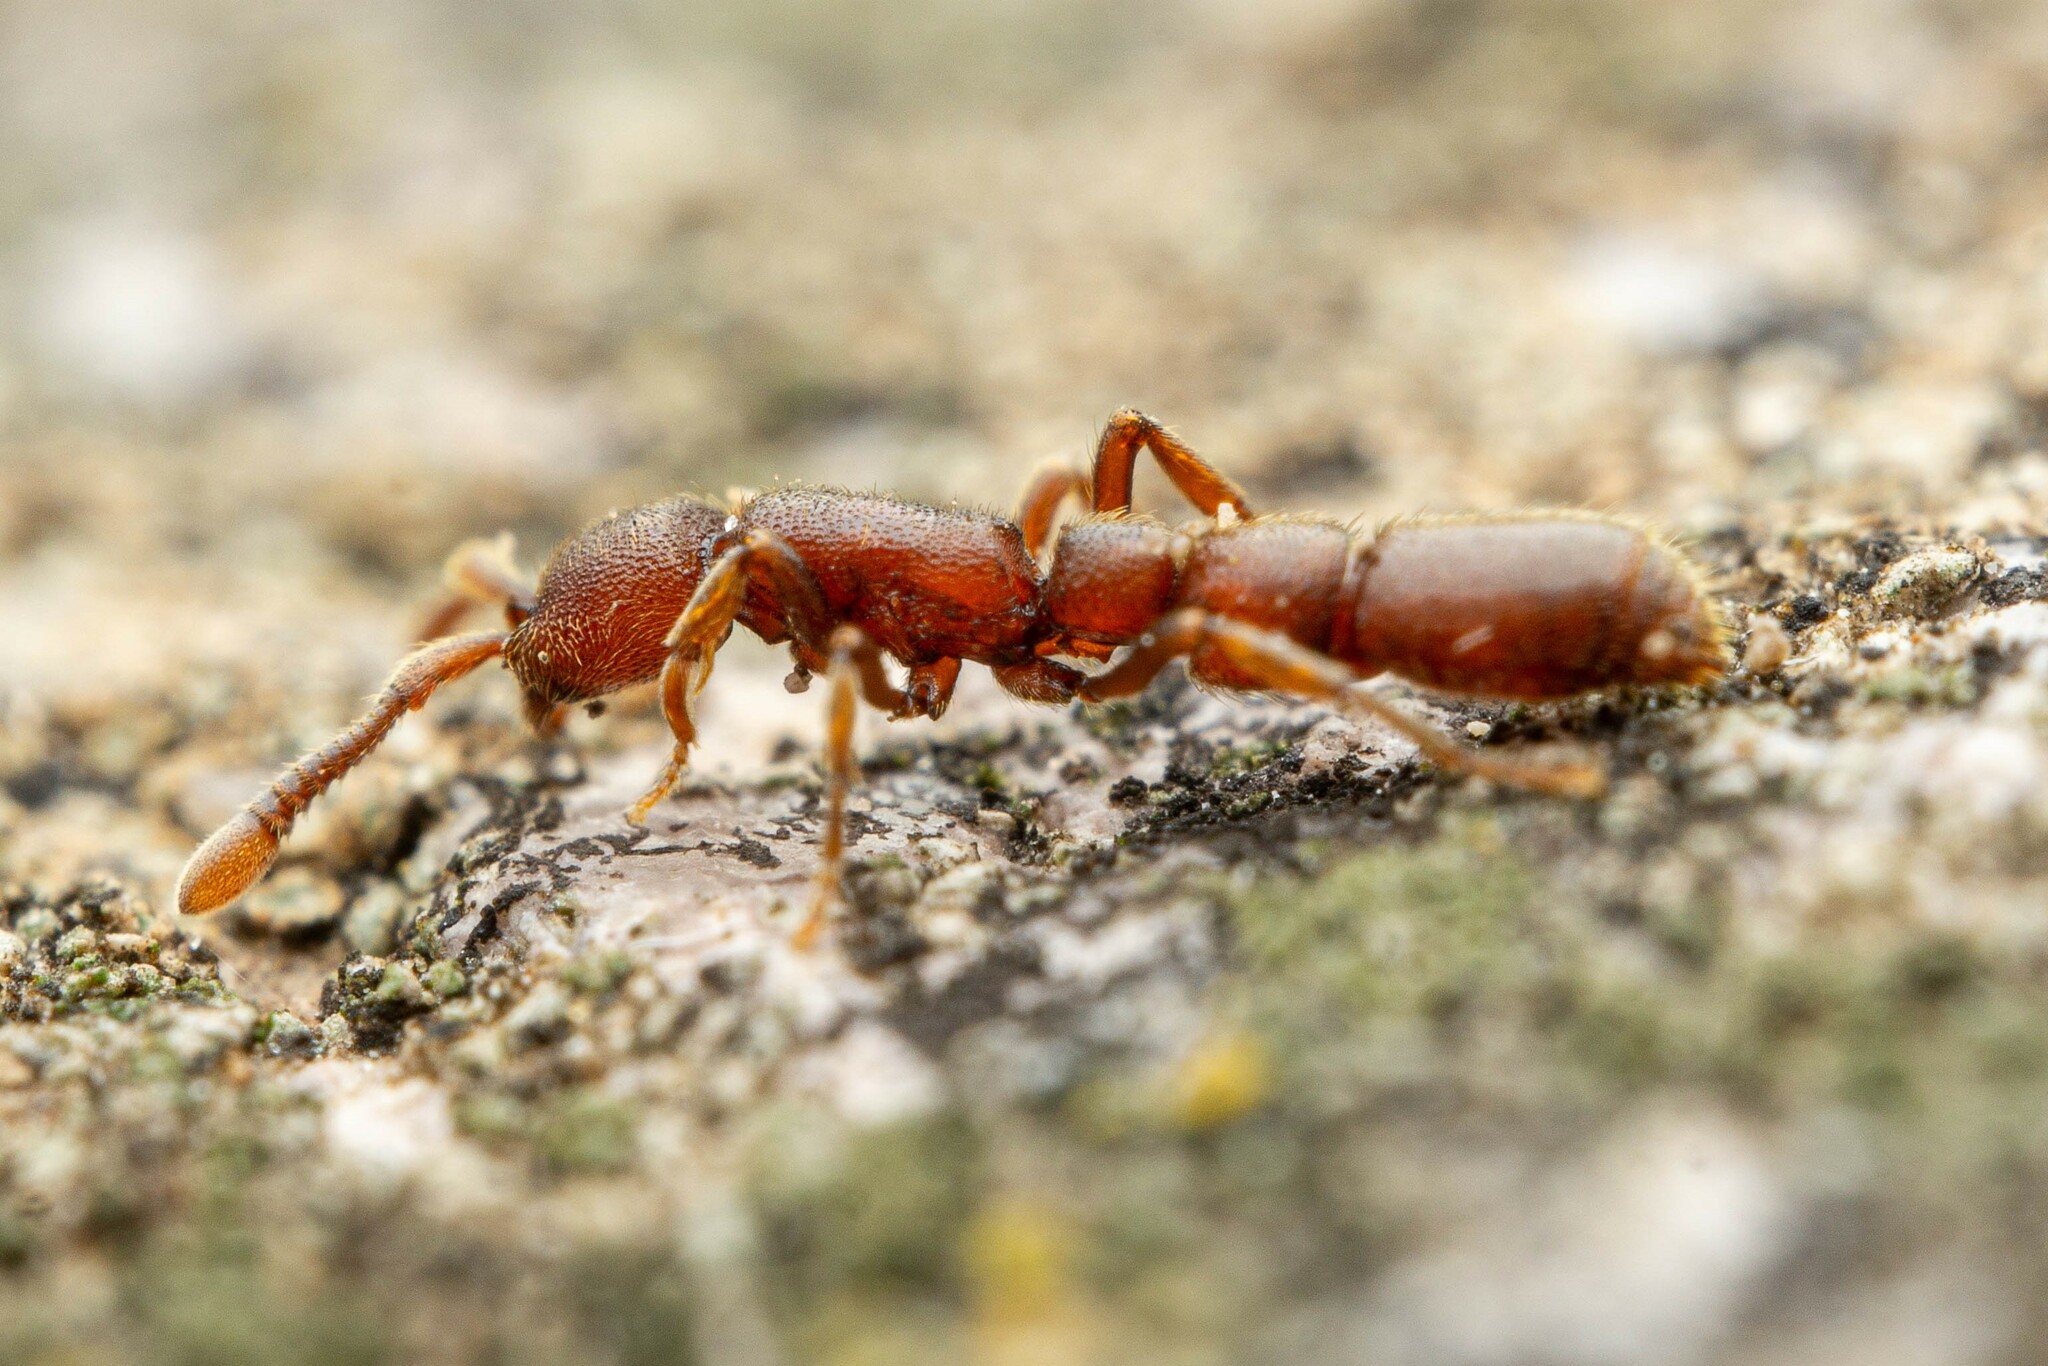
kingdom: Animalia
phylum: Arthropoda
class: Insecta
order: Hymenoptera
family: Formicidae
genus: Syscia
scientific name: Syscia madrensis
